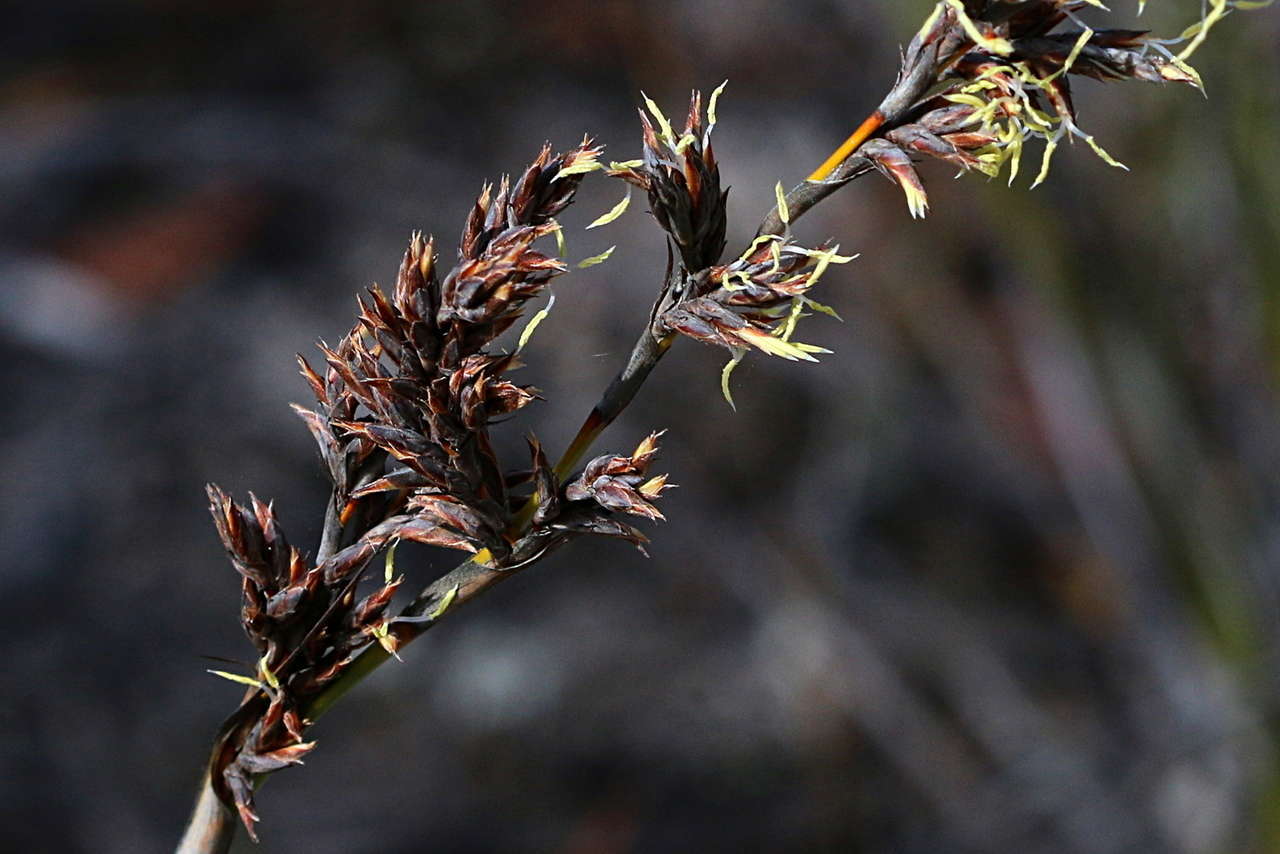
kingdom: Plantae
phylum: Tracheophyta
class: Liliopsida
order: Poales
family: Cyperaceae
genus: Lepidosperma
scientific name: Lepidosperma viscidum
